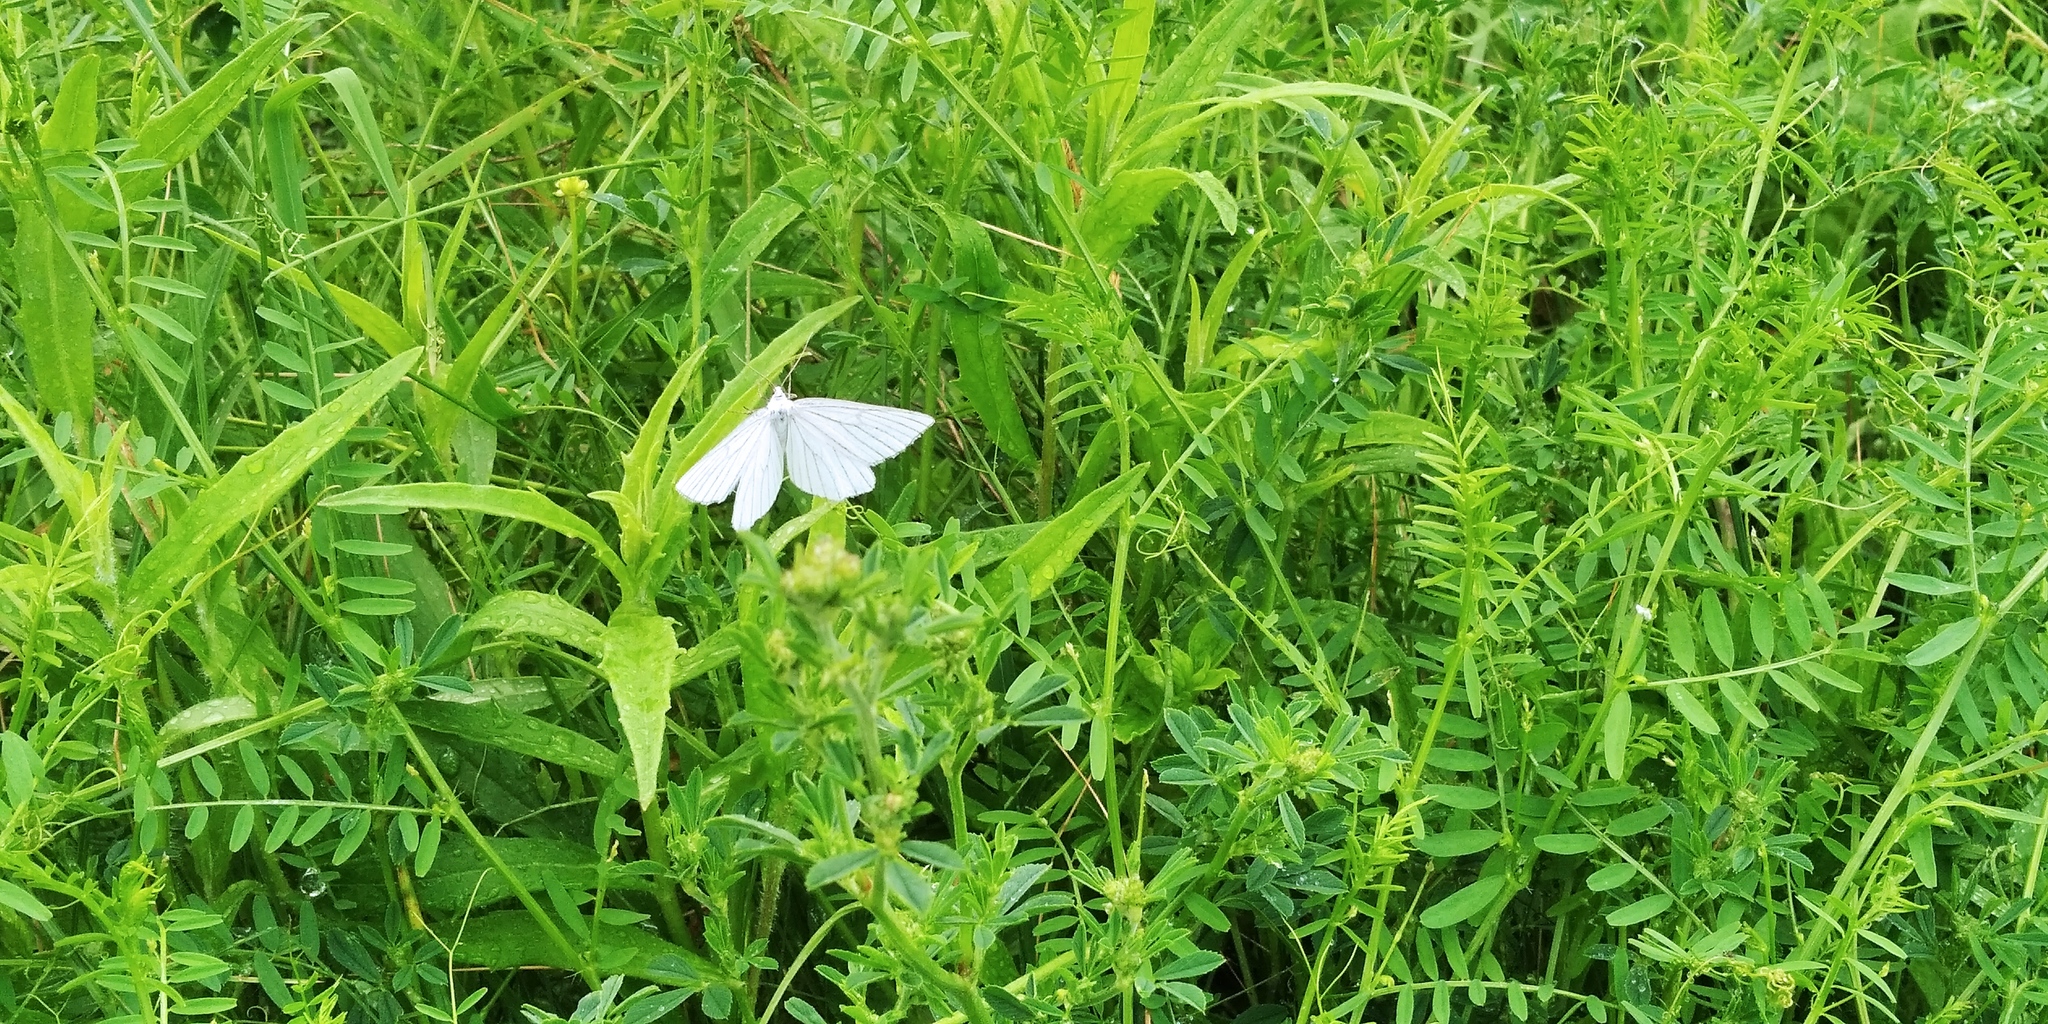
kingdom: Animalia
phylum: Arthropoda
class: Insecta
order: Lepidoptera
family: Geometridae
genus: Siona
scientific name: Siona lineata
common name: Black-veined moth
